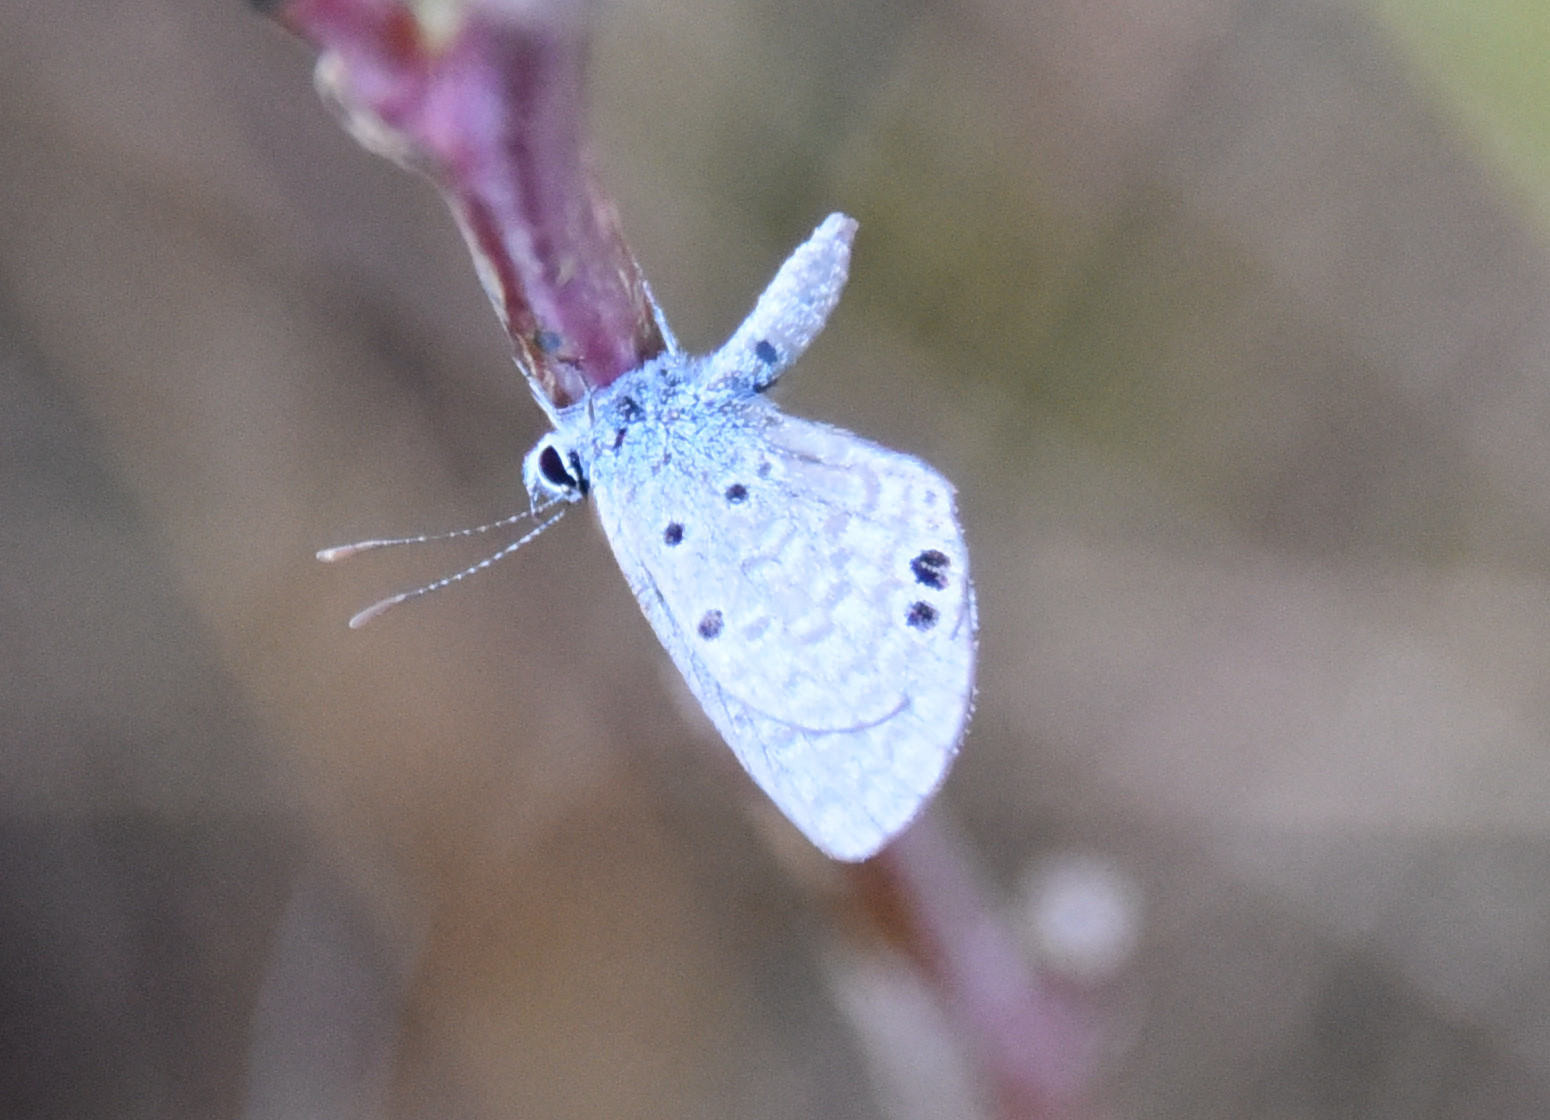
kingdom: Animalia
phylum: Arthropoda
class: Insecta
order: Lepidoptera
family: Lycaenidae
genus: Hemiargus
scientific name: Hemiargus ceraunus
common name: Ceraunus blue
